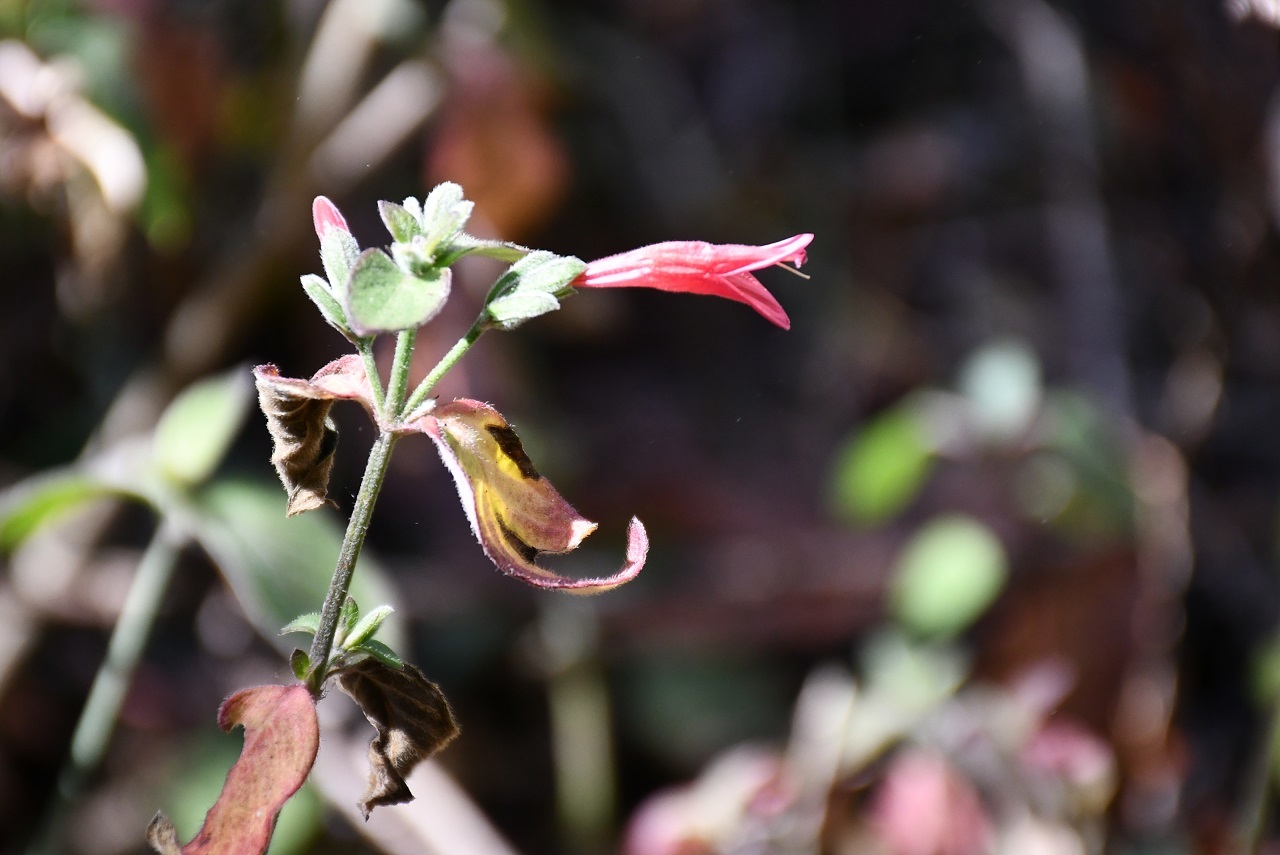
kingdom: Plantae
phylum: Tracheophyta
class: Magnoliopsida
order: Lamiales
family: Acanthaceae
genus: Dicliptera
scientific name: Dicliptera inutilis
